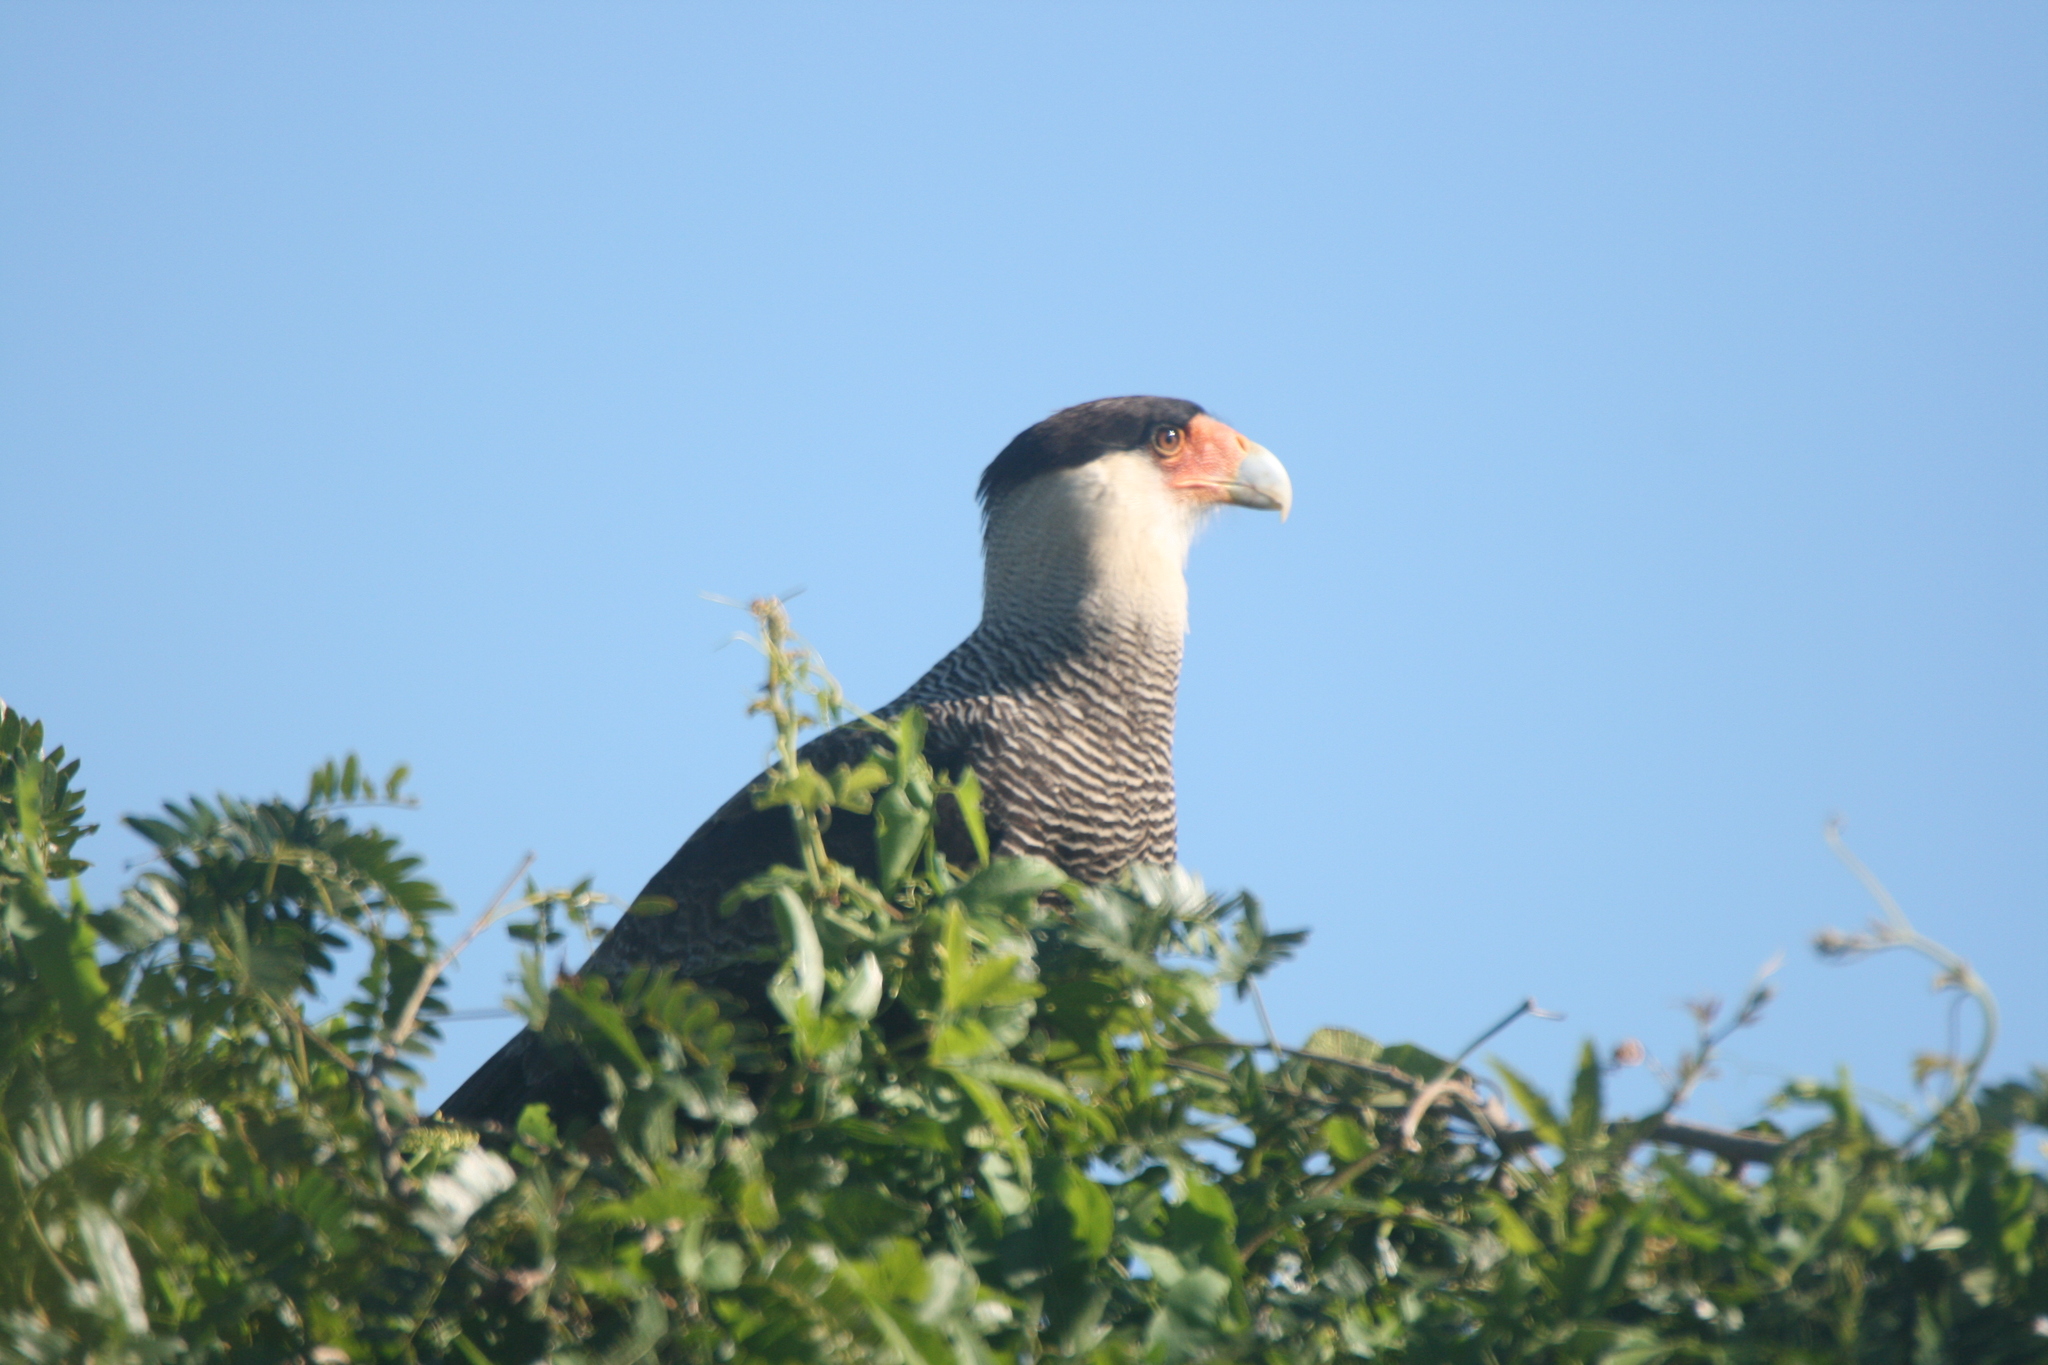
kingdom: Animalia
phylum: Chordata
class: Aves
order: Falconiformes
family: Falconidae
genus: Caracara
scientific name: Caracara plancus
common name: Southern caracara
